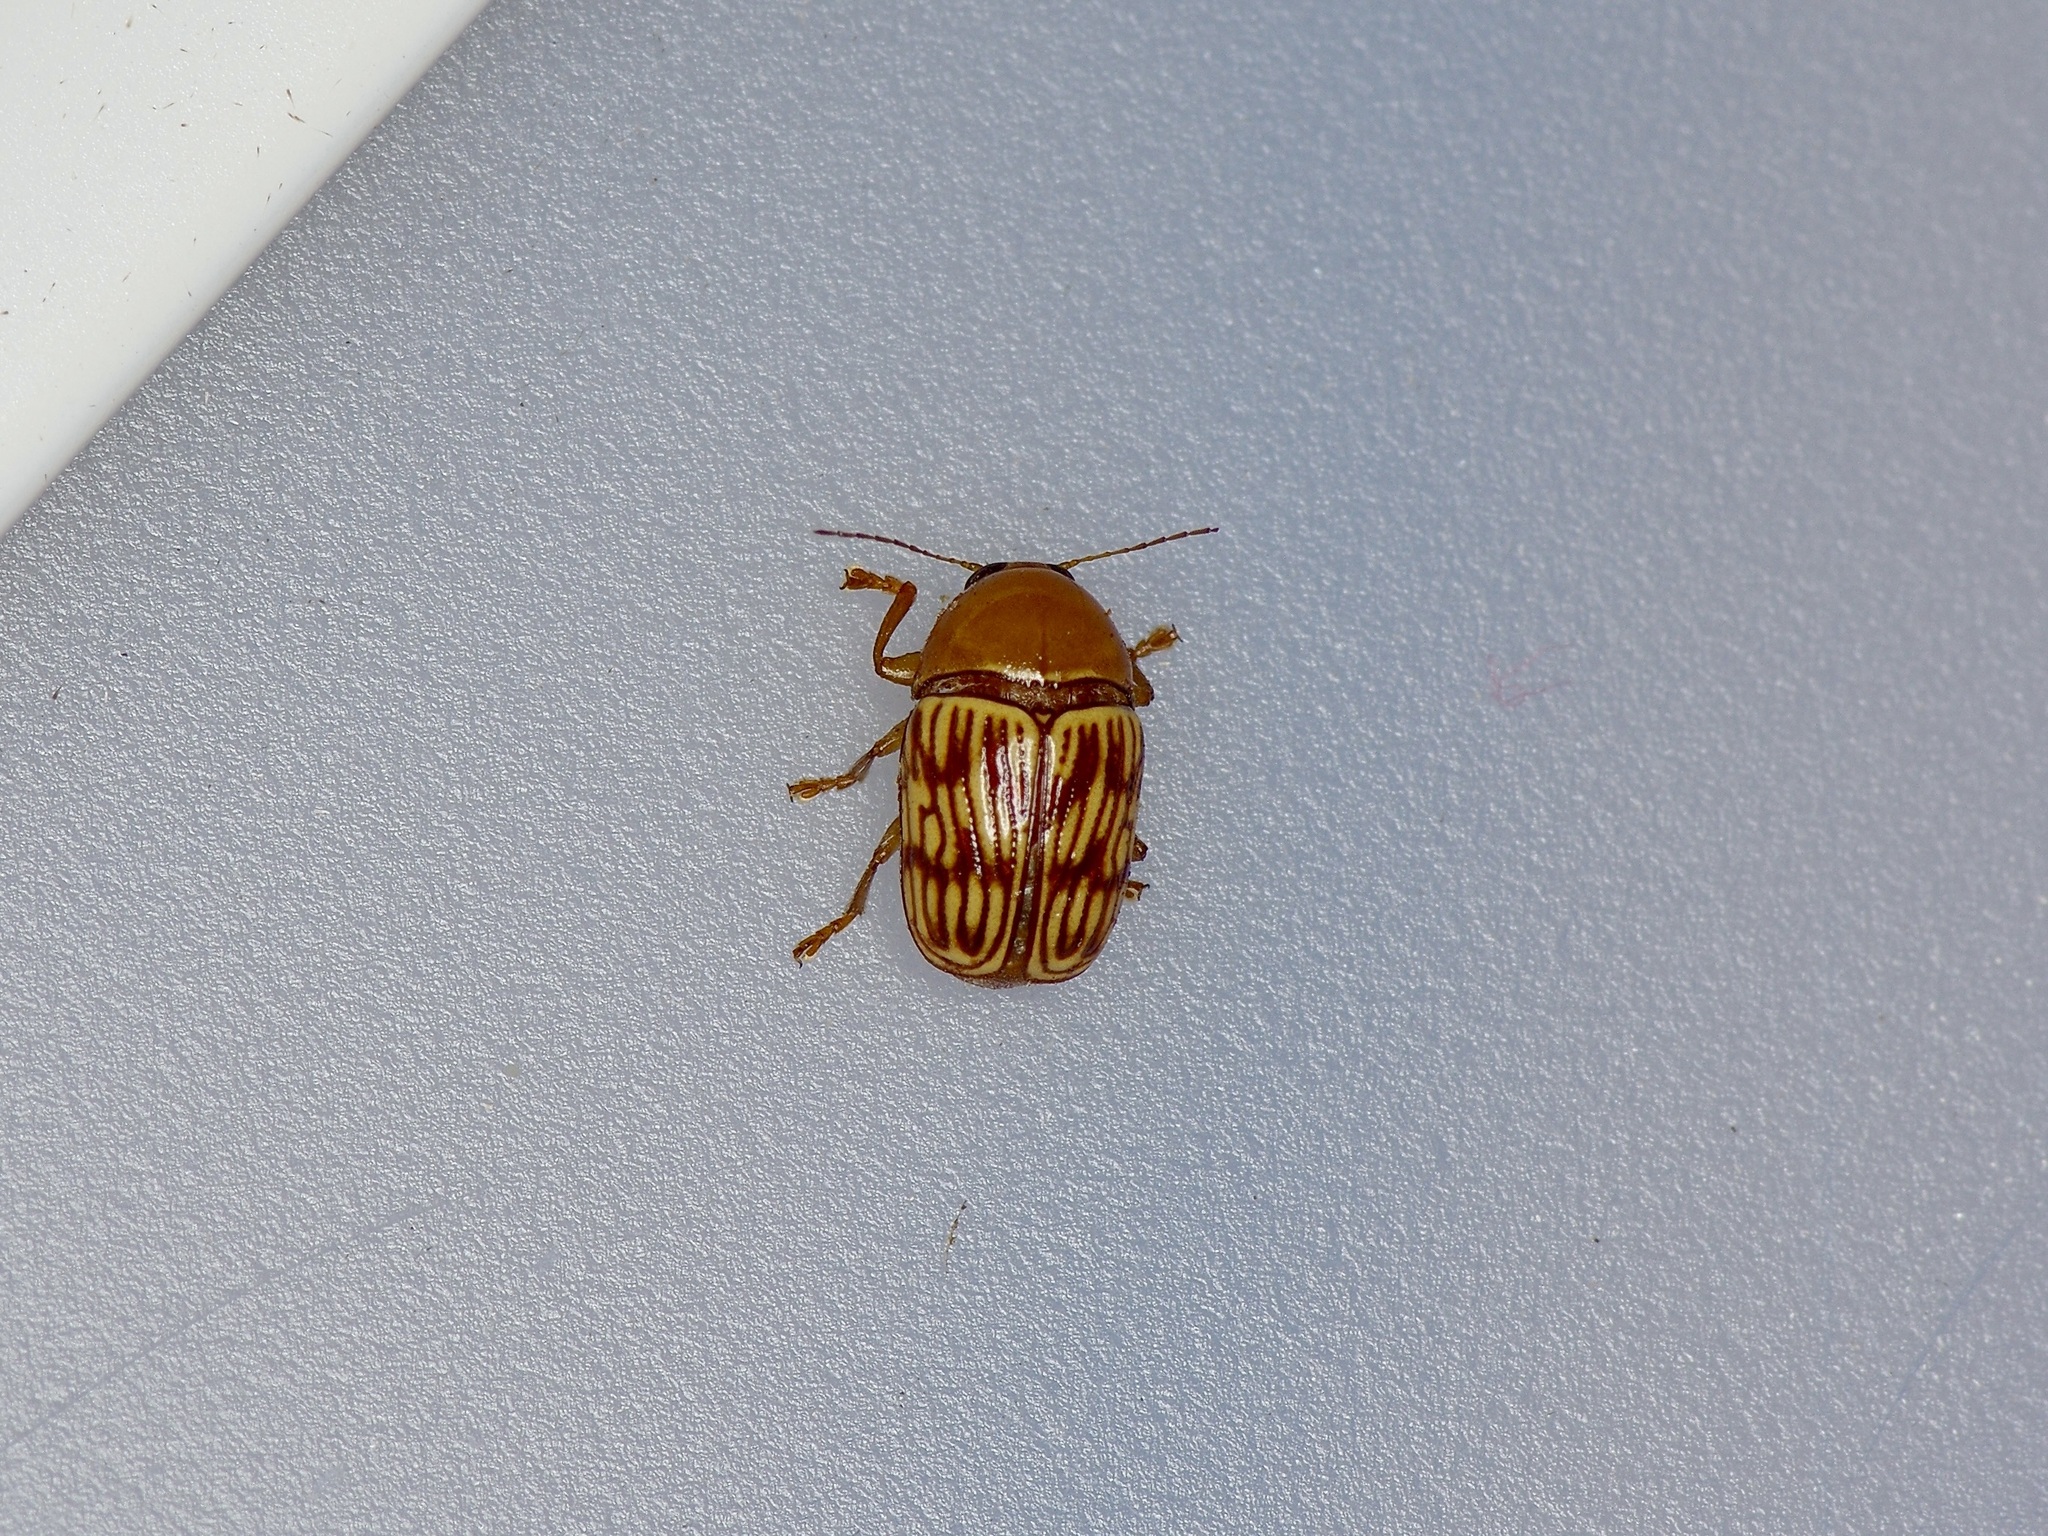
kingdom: Animalia
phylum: Arthropoda
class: Insecta
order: Coleoptera
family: Chrysomelidae
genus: Cryptocephalus
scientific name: Cryptocephalus fulguratus
